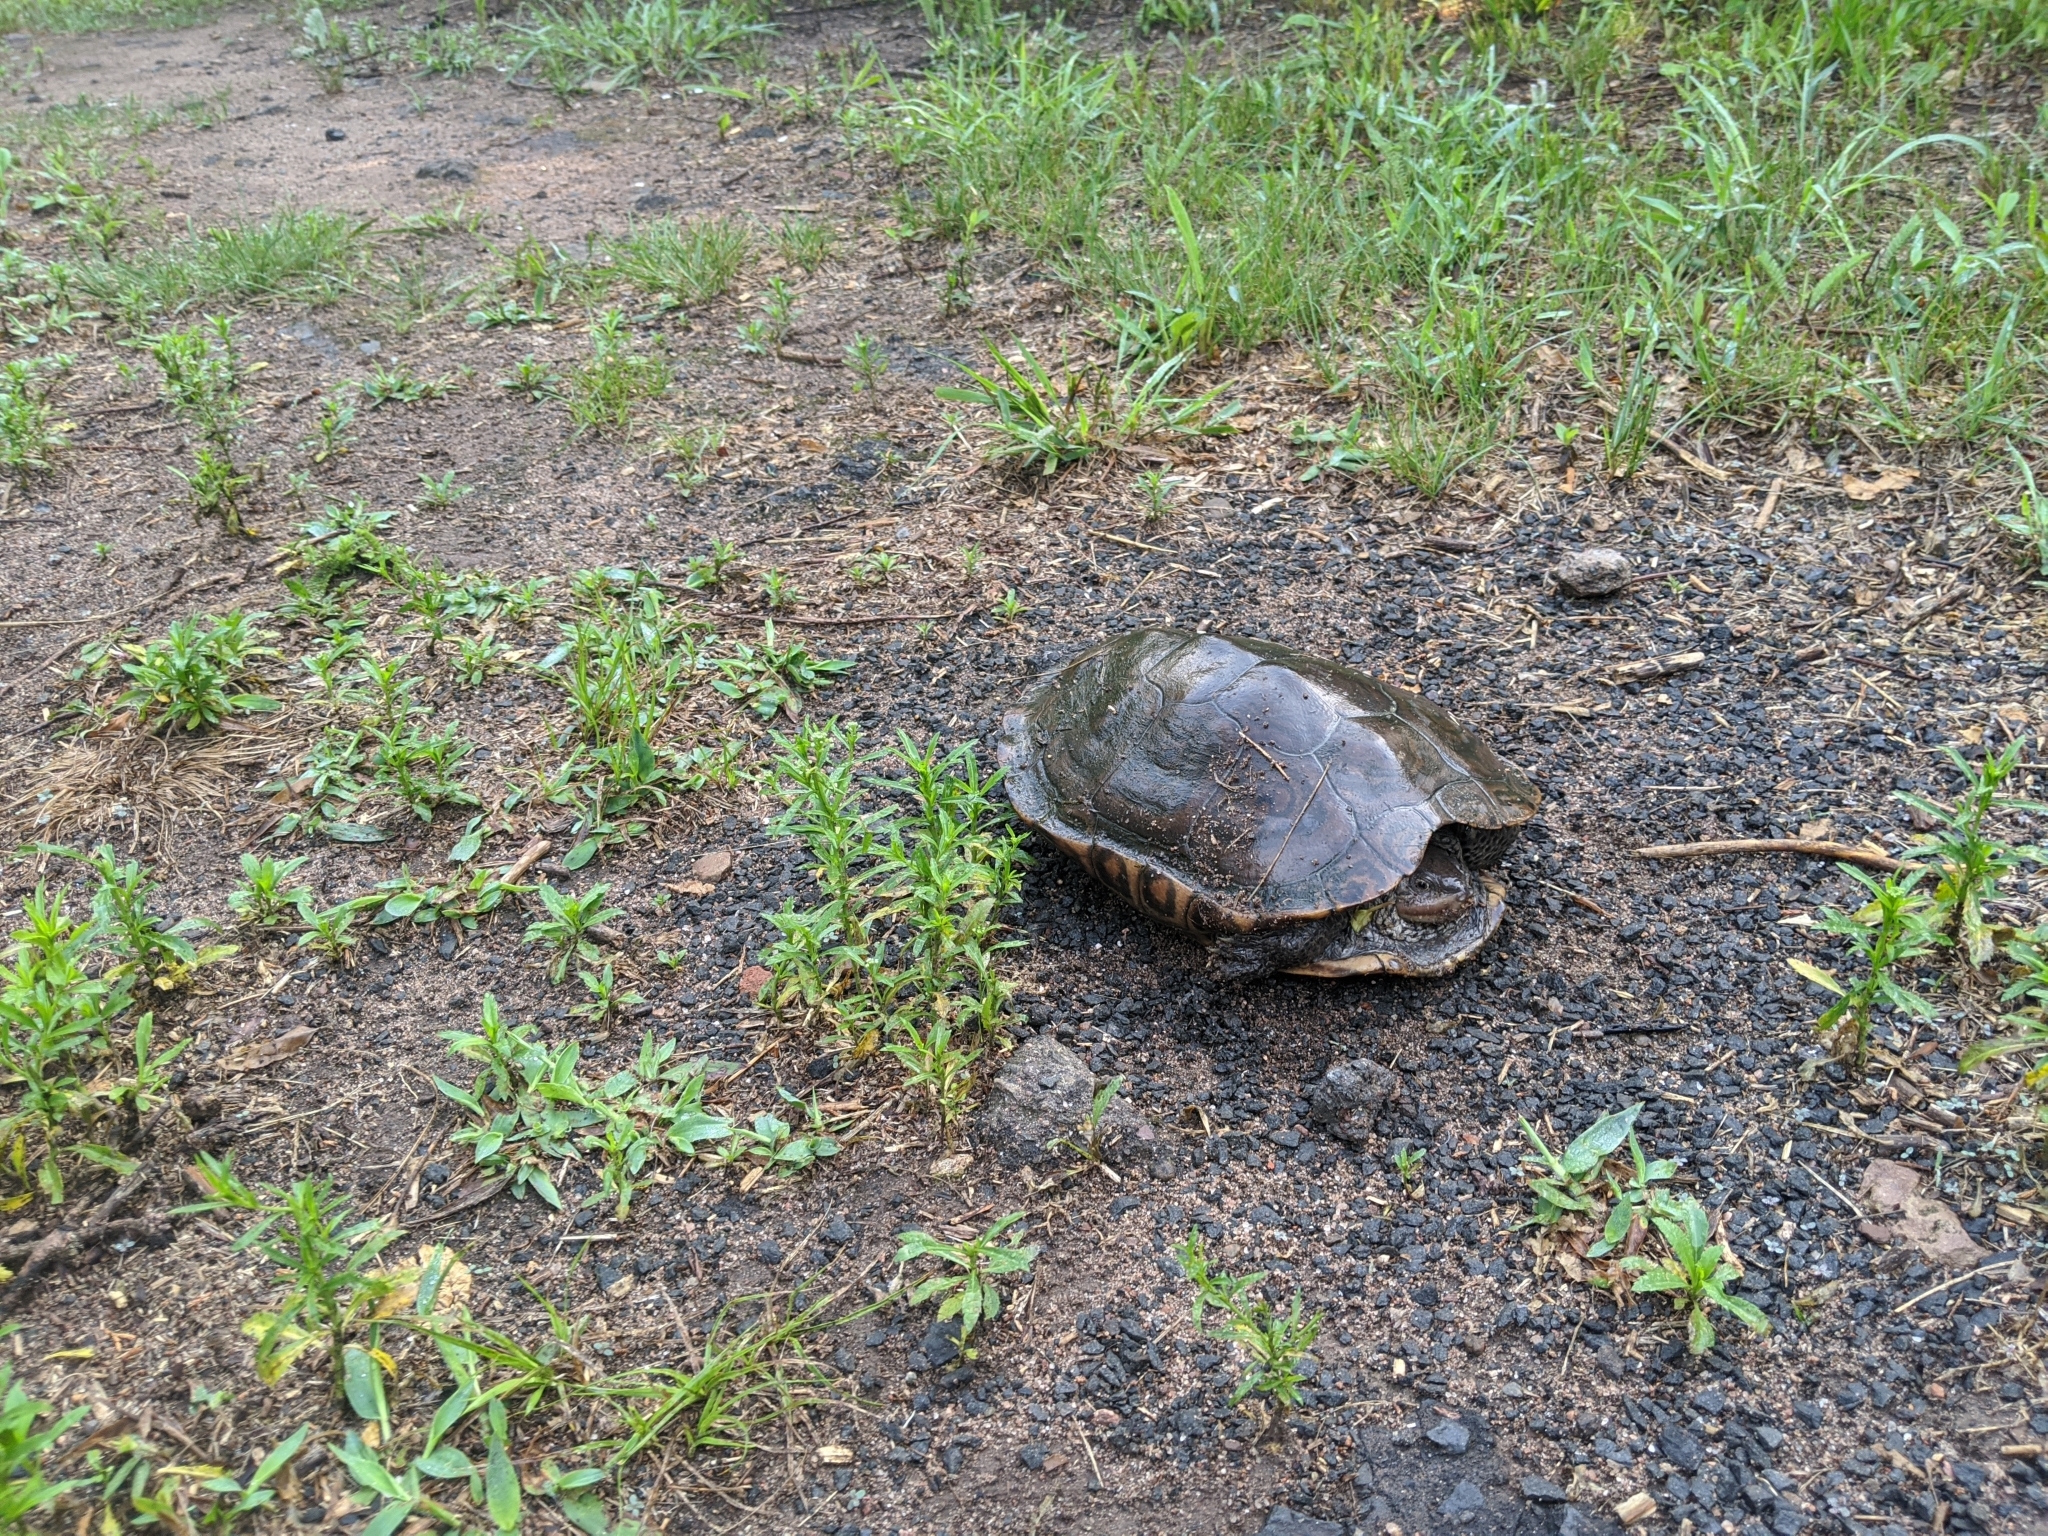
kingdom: Animalia
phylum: Chordata
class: Testudines
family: Emydidae
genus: Malaclemys
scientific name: Malaclemys terrapin
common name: Diamondback terrapin
